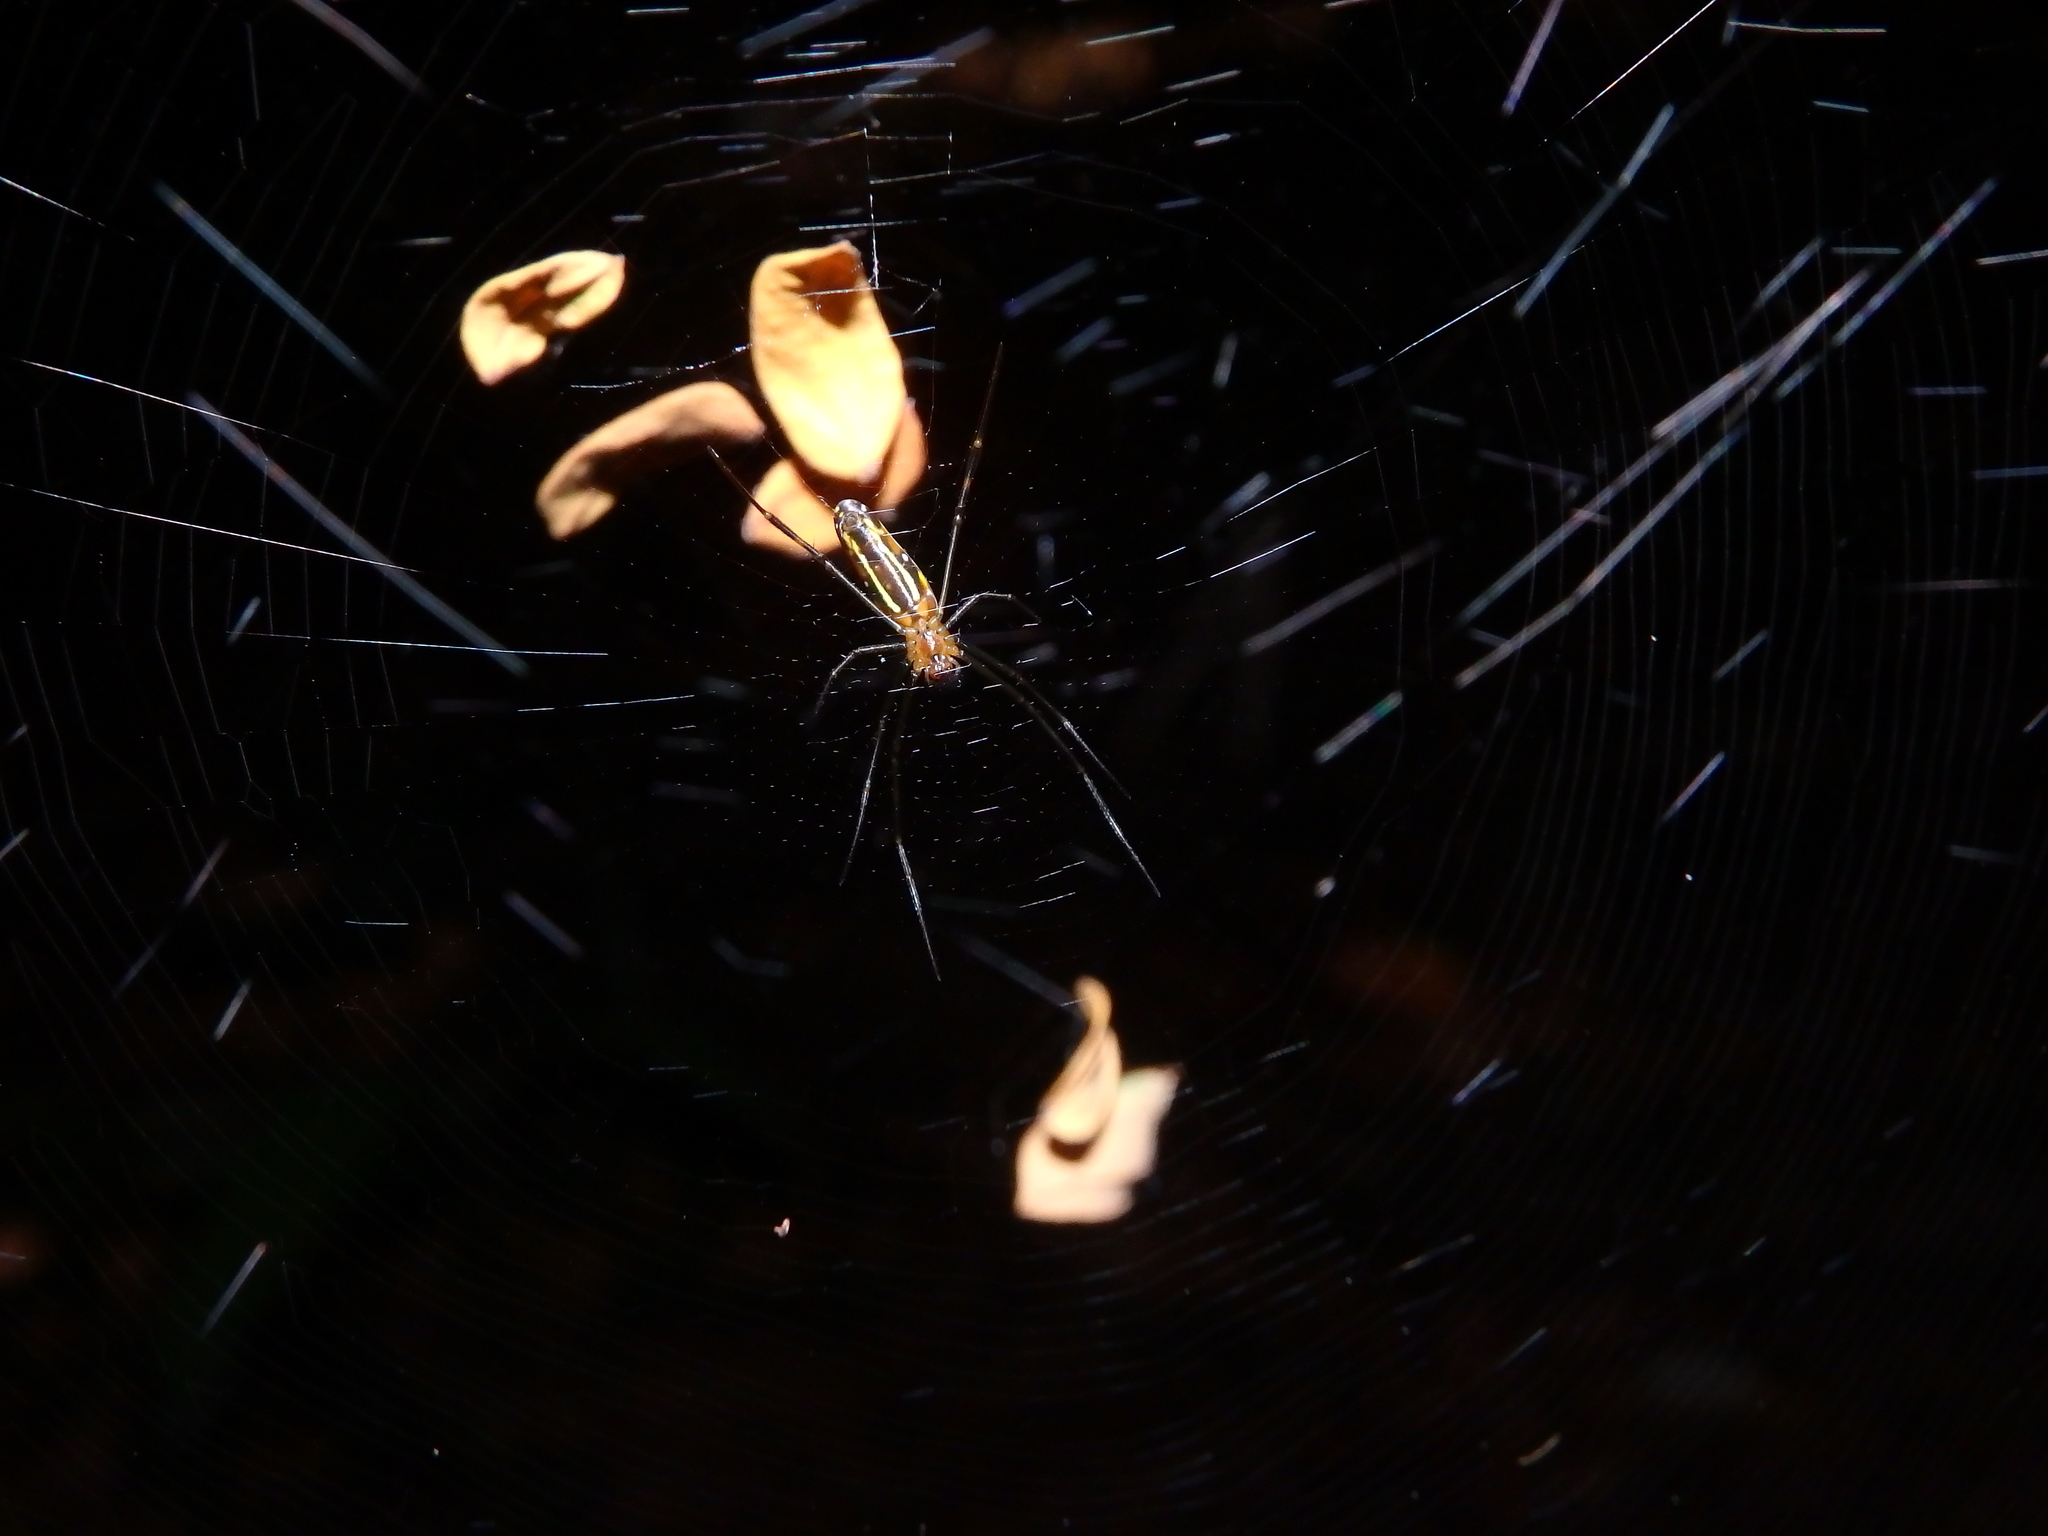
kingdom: Animalia
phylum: Arthropoda
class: Arachnida
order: Araneae
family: Araneidae
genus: Nephila
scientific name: Nephila pilipes
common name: Giant golden orb weaver
